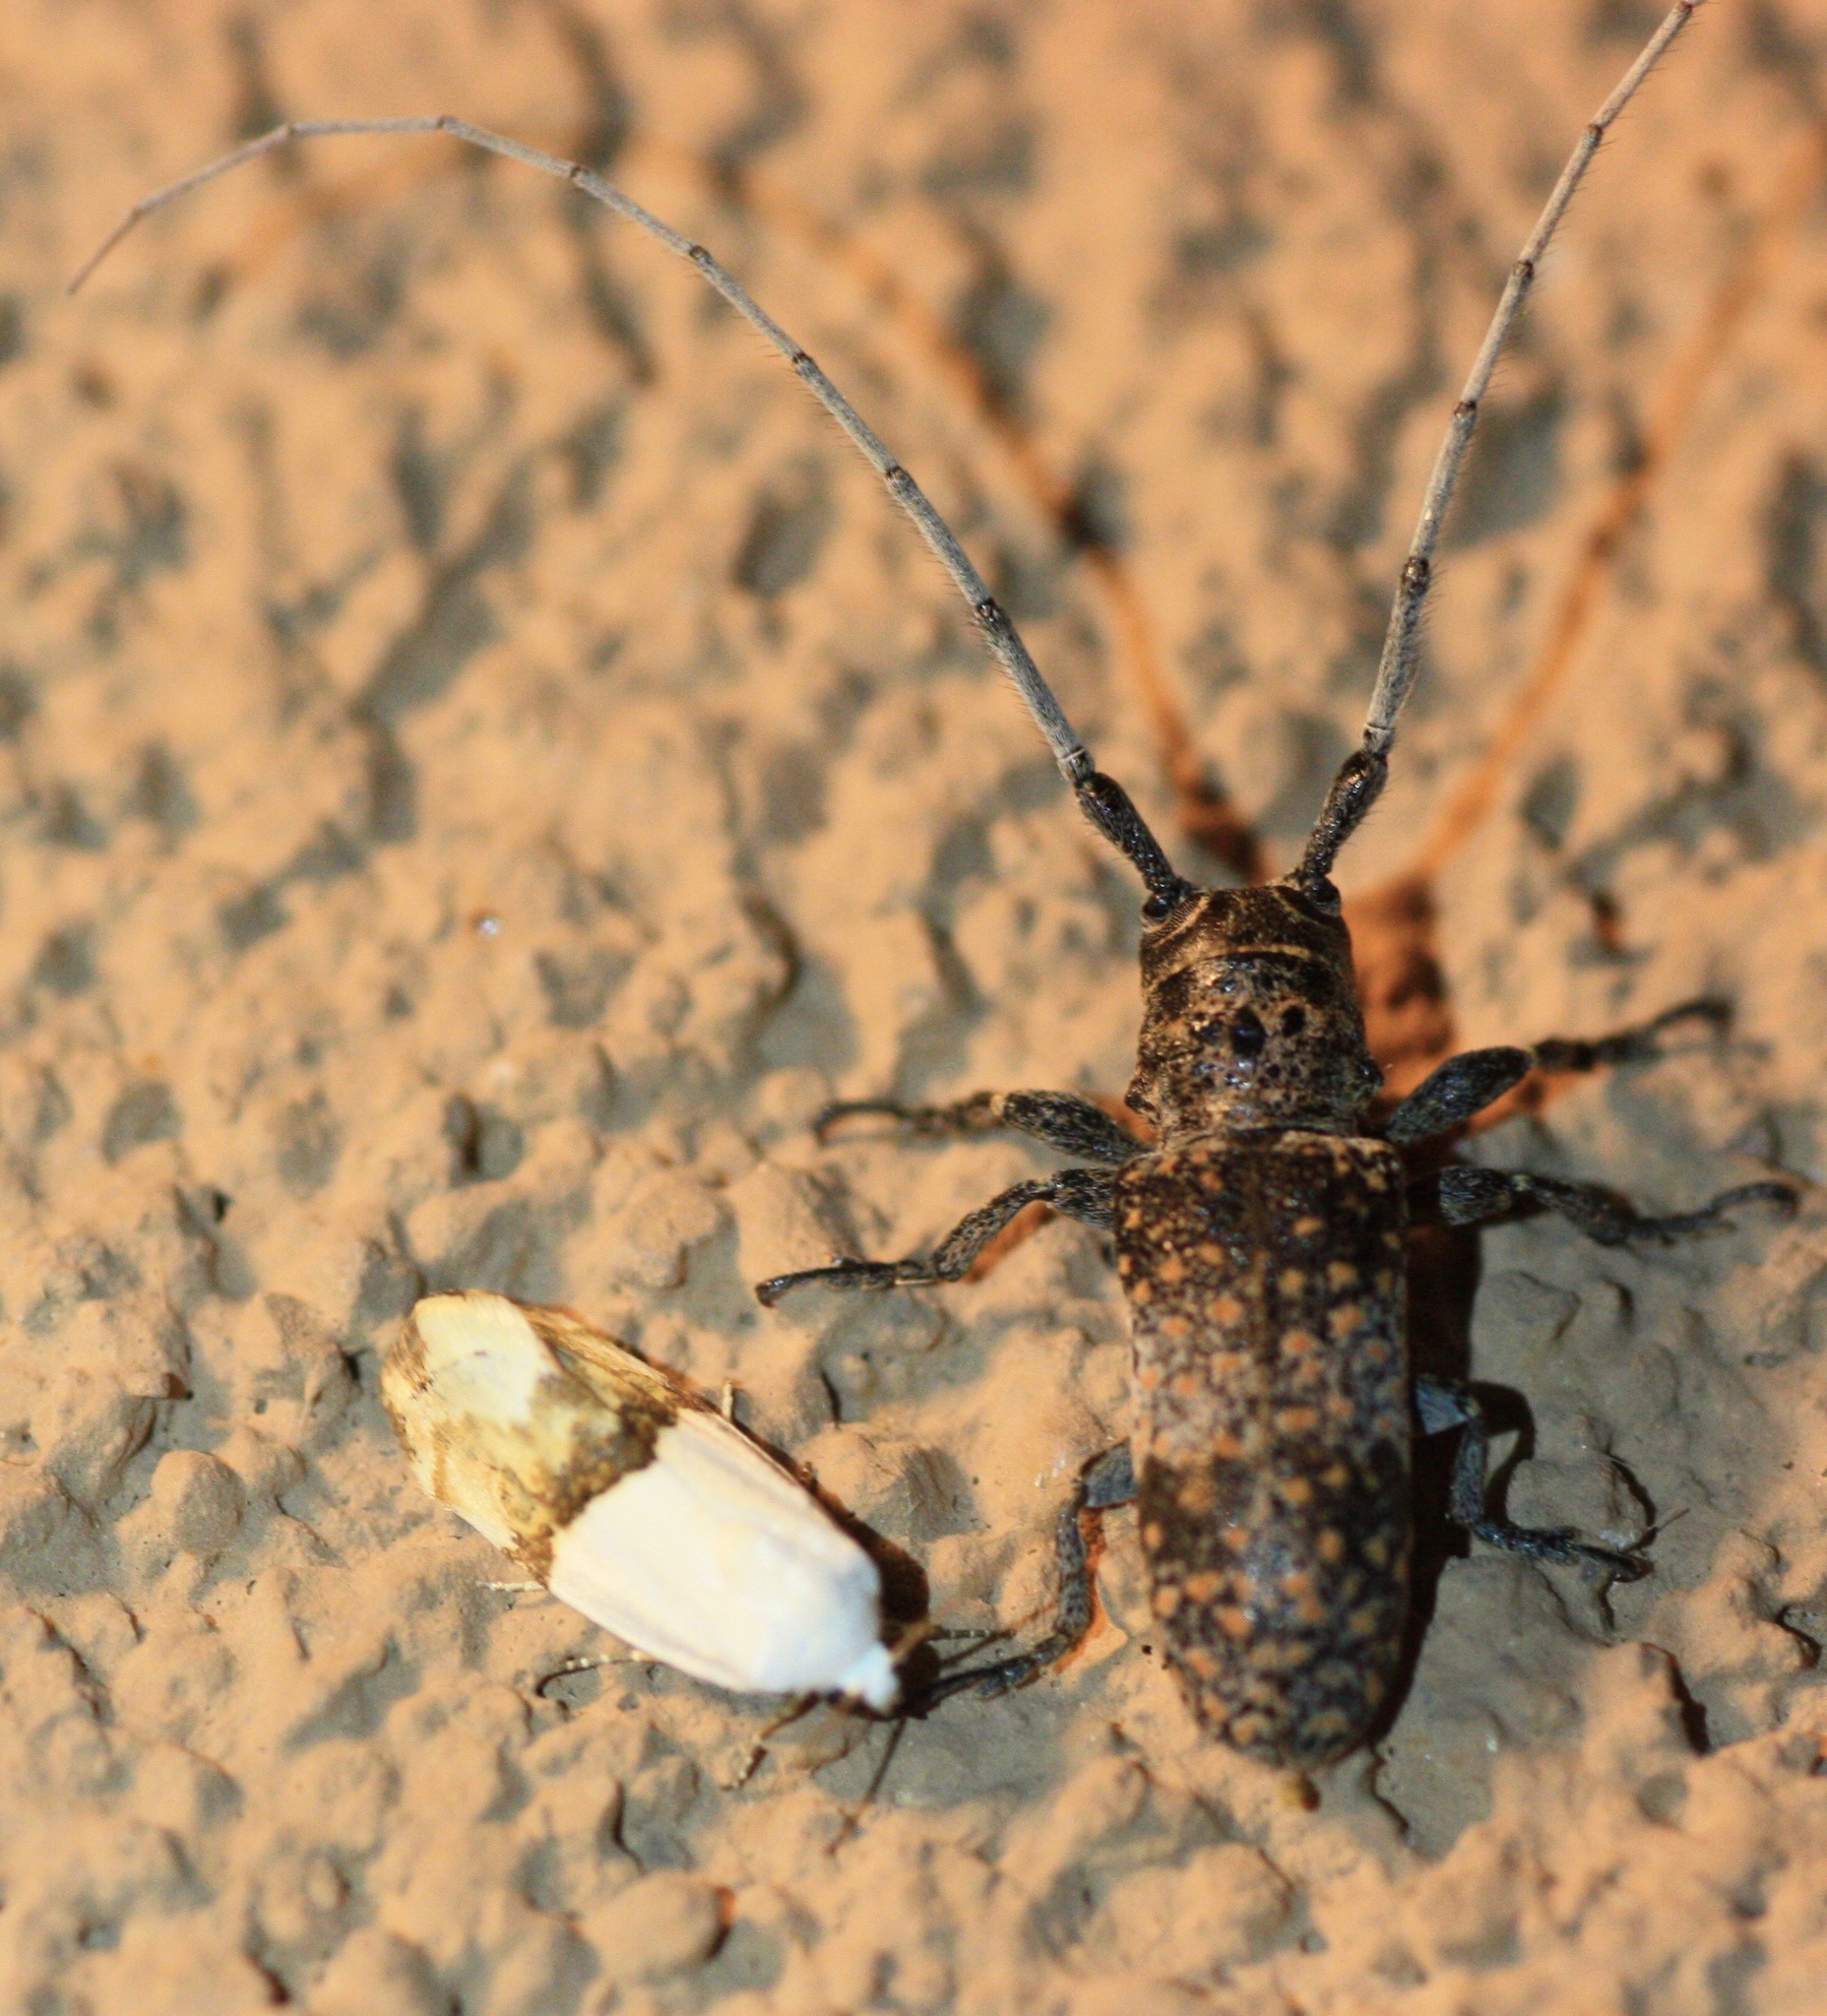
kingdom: Animalia
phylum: Arthropoda
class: Insecta
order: Coleoptera
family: Cerambycidae
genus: Oncideres
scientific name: Oncideres rhodosticta
